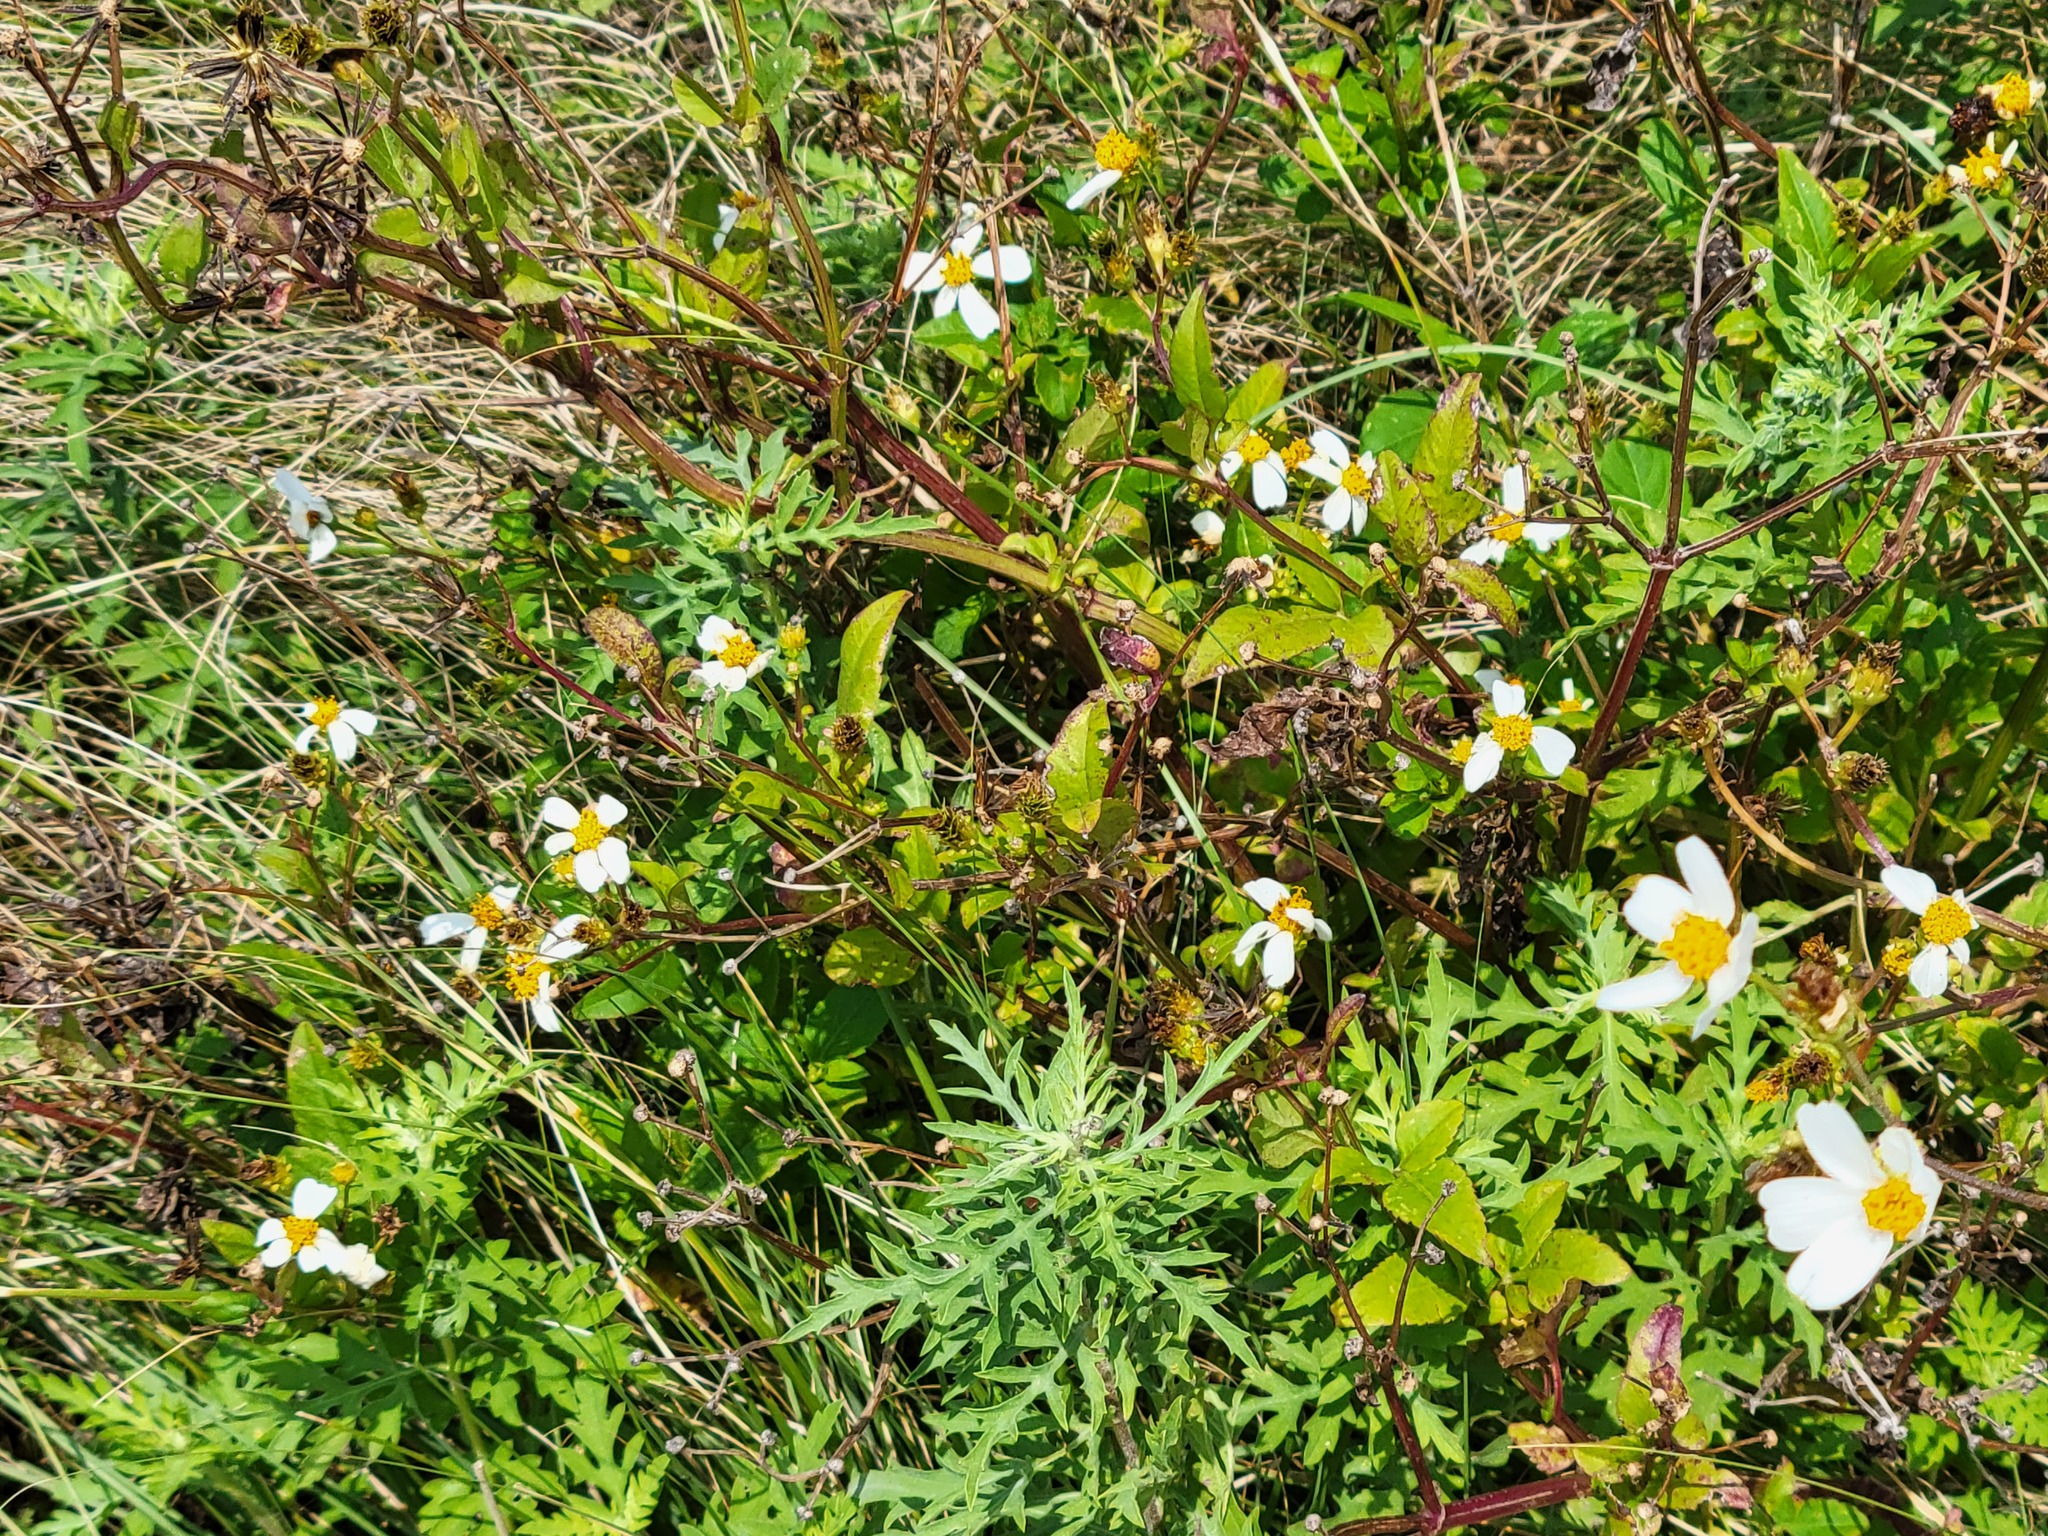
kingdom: Plantae
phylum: Tracheophyta
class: Magnoliopsida
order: Asterales
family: Asteraceae
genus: Bidens
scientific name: Bidens alba
